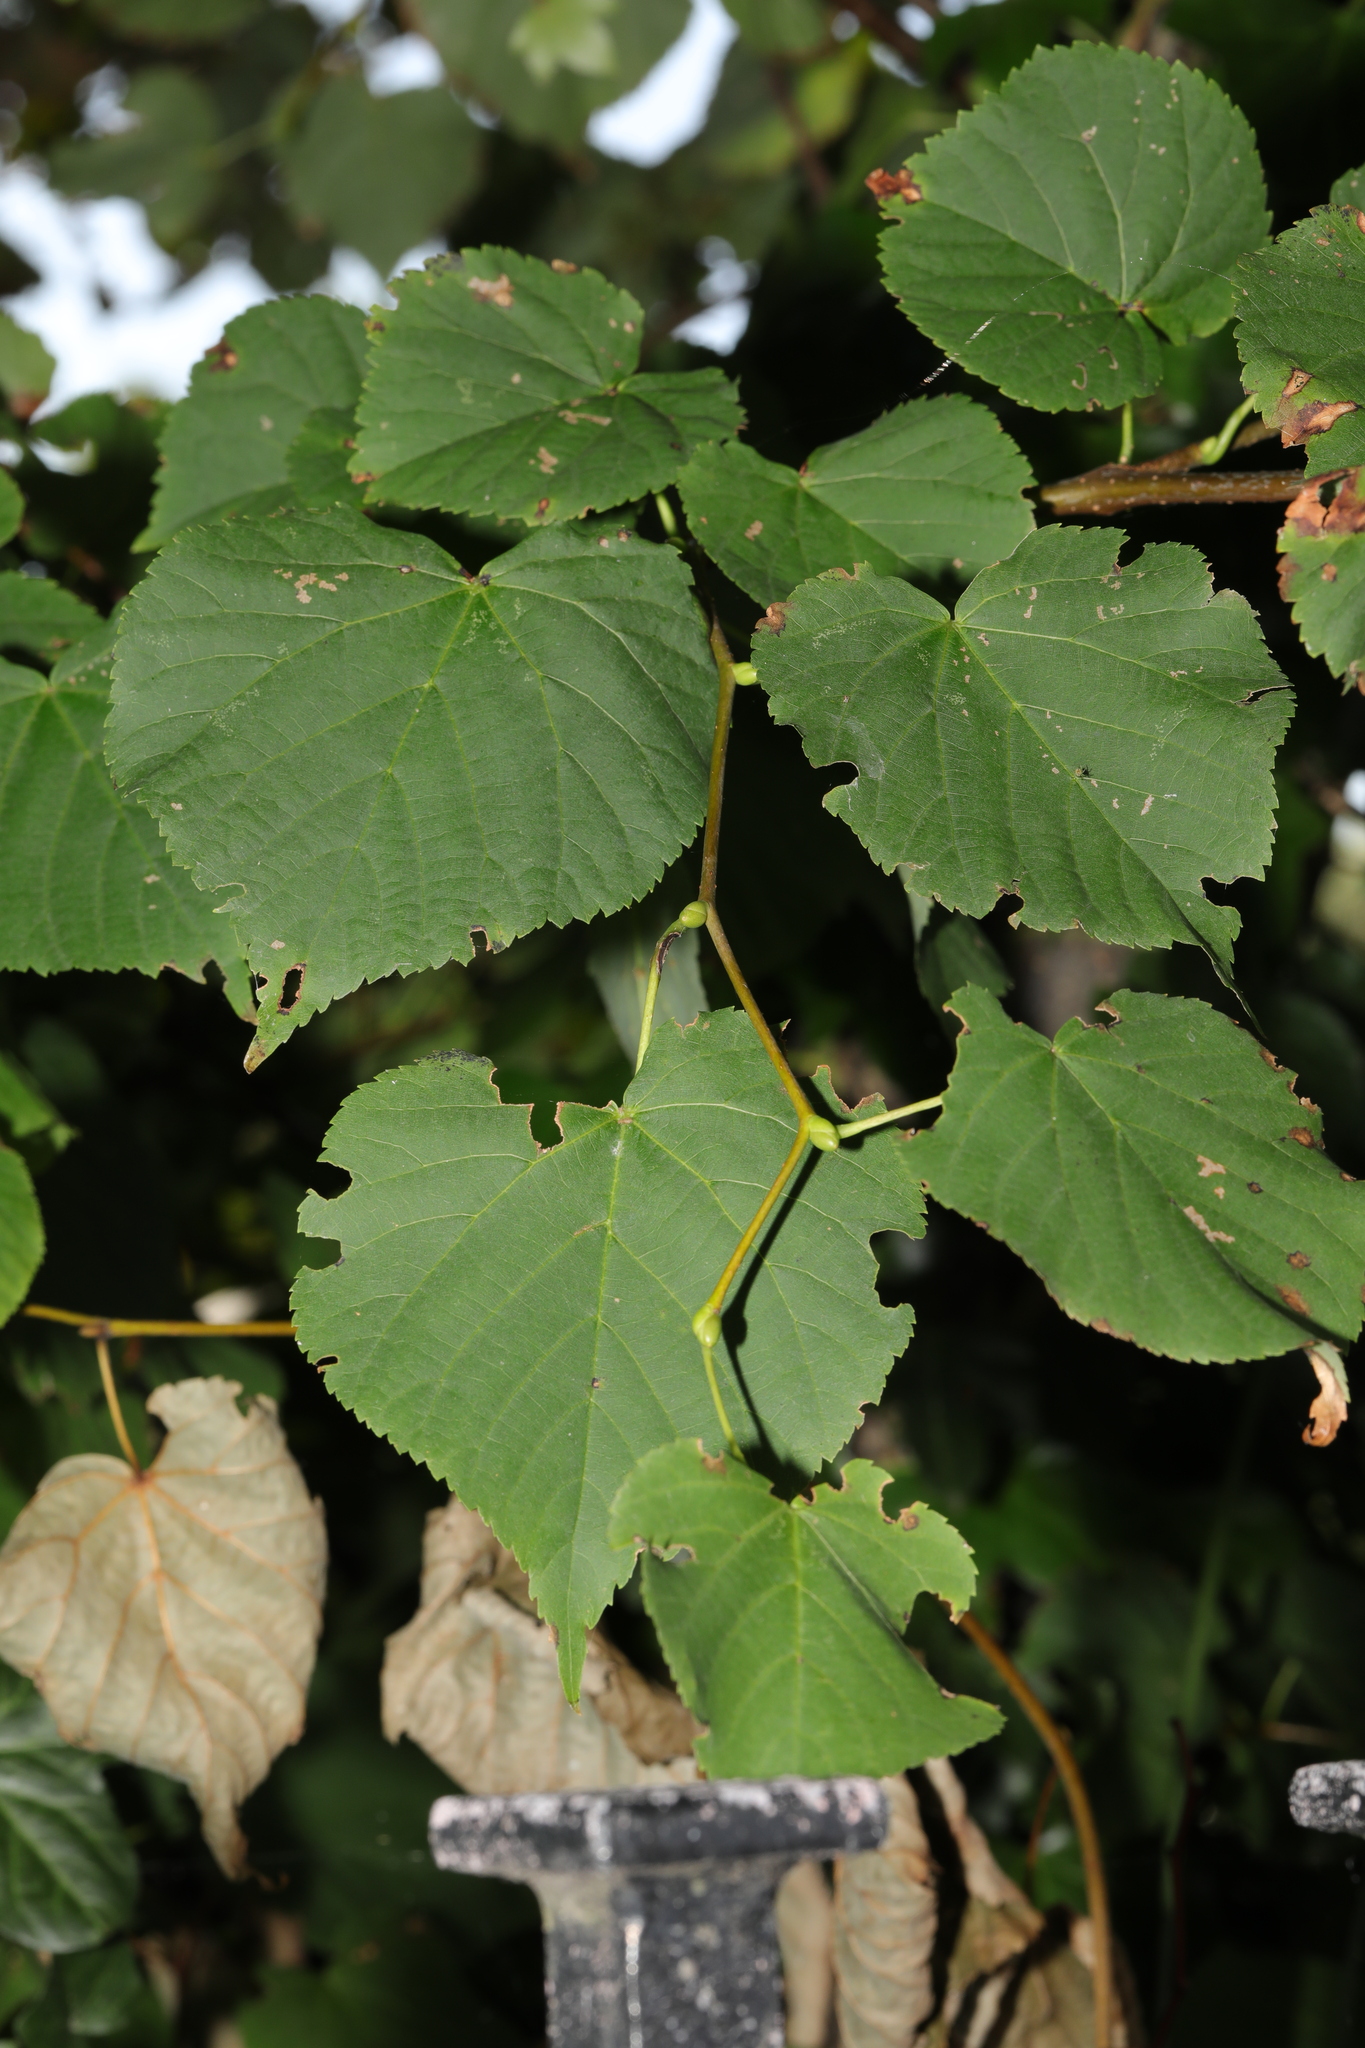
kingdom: Plantae
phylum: Tracheophyta
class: Magnoliopsida
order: Malvales
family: Malvaceae
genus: Tilia
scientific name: Tilia cordata
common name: Small-leaved lime
